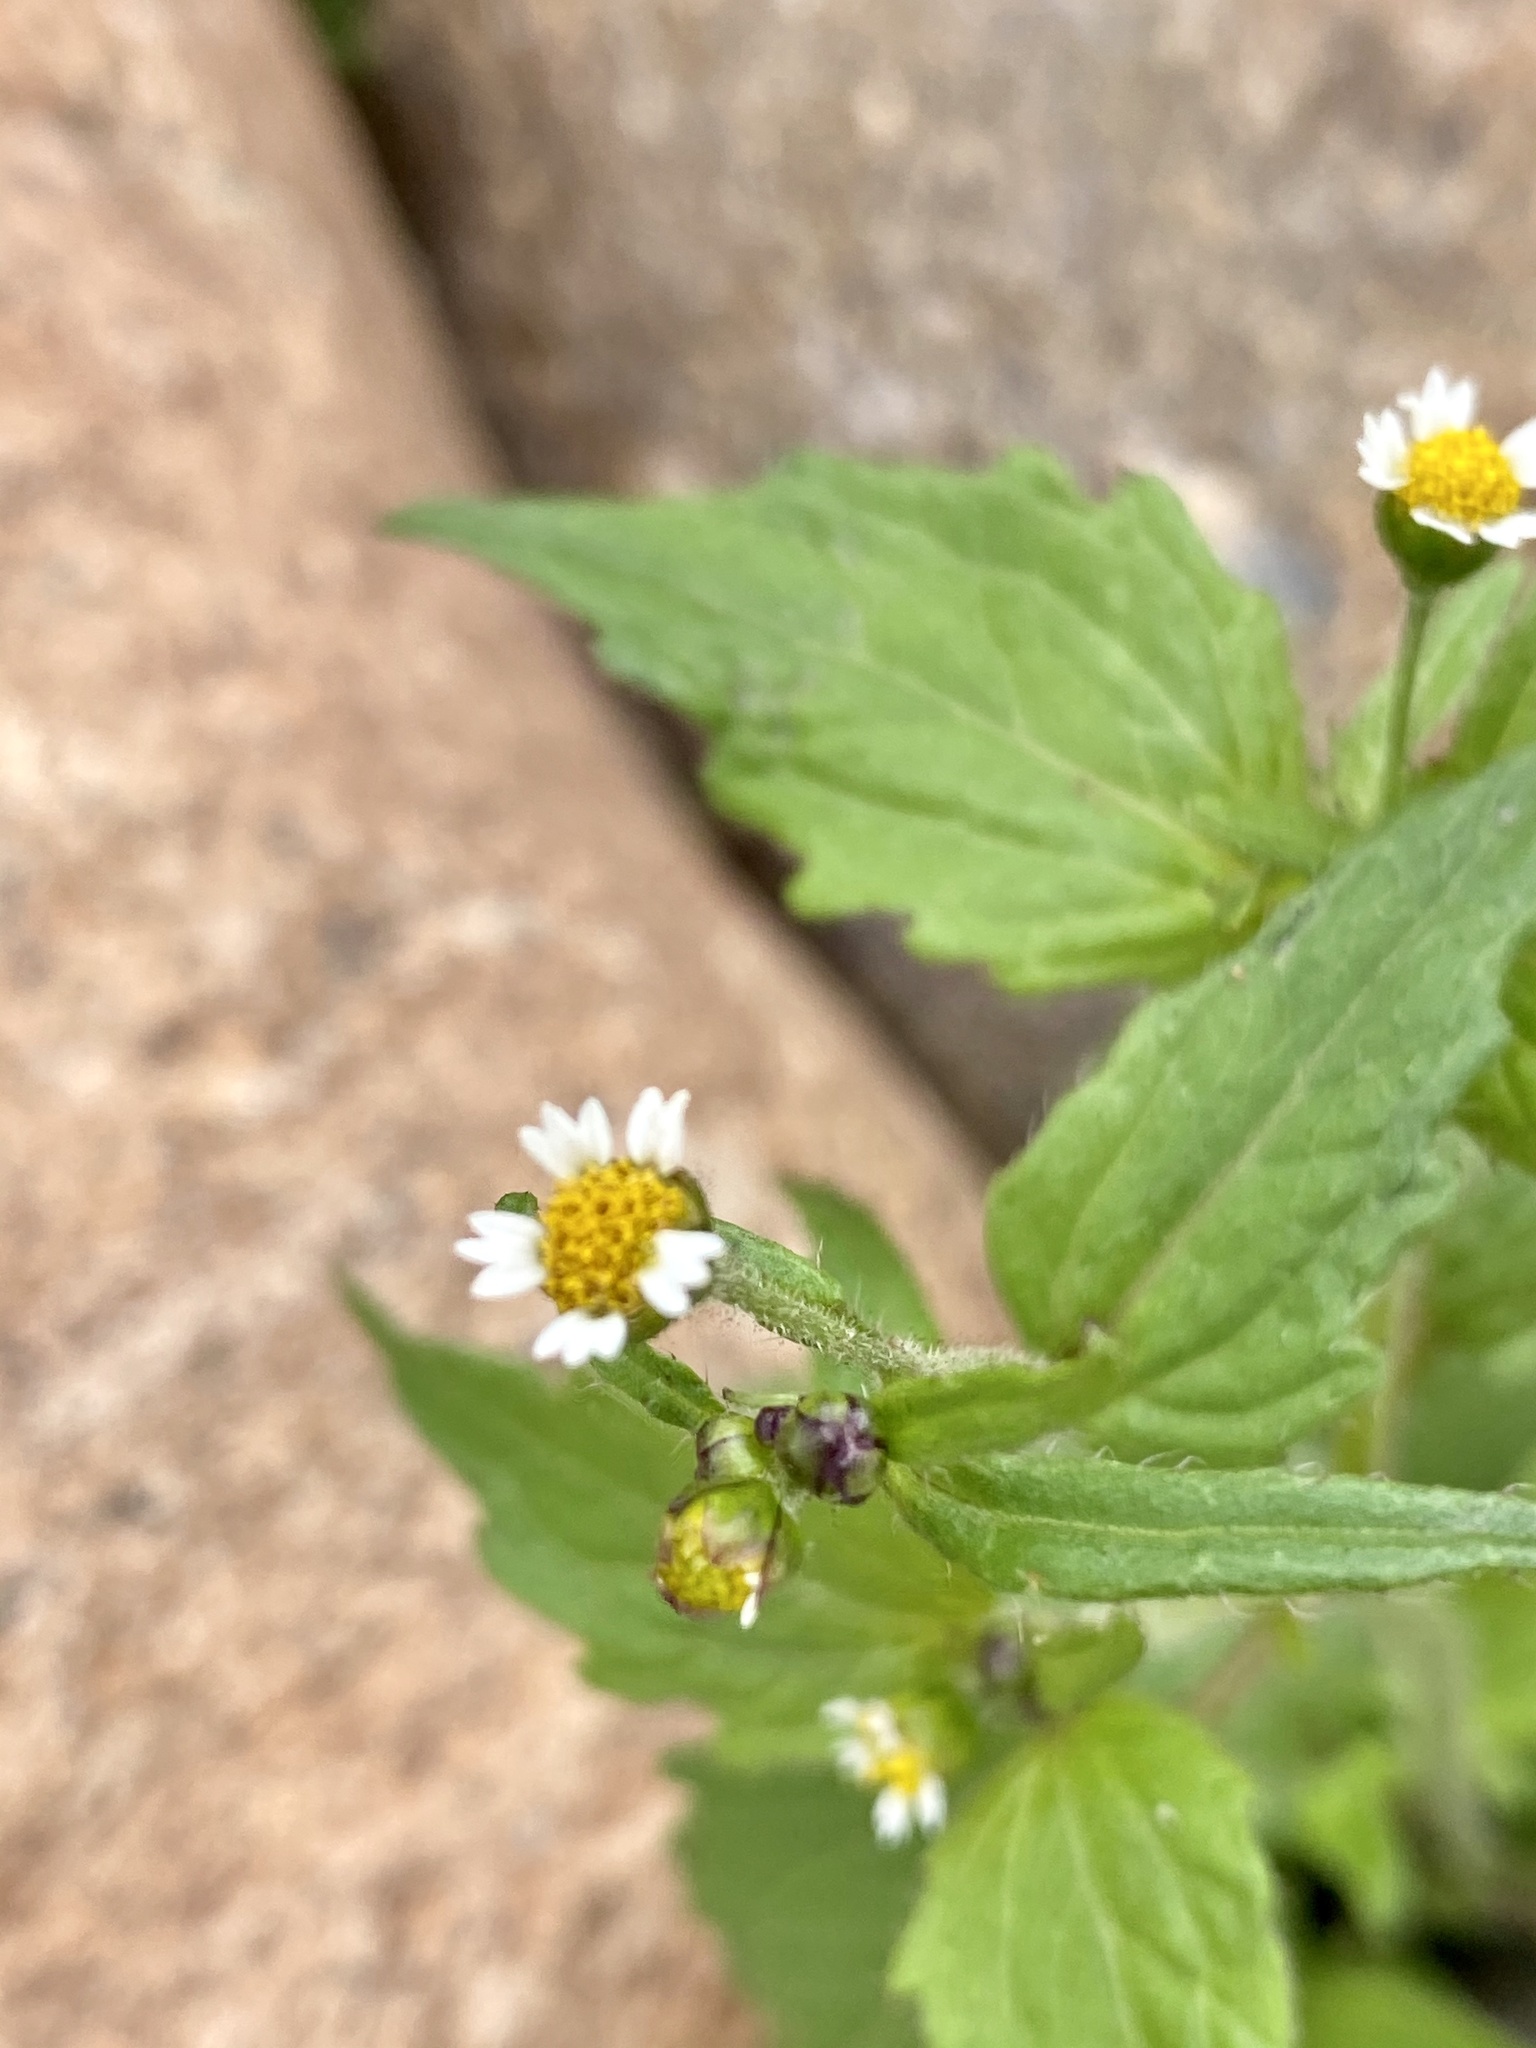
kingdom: Plantae
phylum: Tracheophyta
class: Magnoliopsida
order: Asterales
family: Asteraceae
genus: Galinsoga
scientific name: Galinsoga quadriradiata
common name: Shaggy soldier
